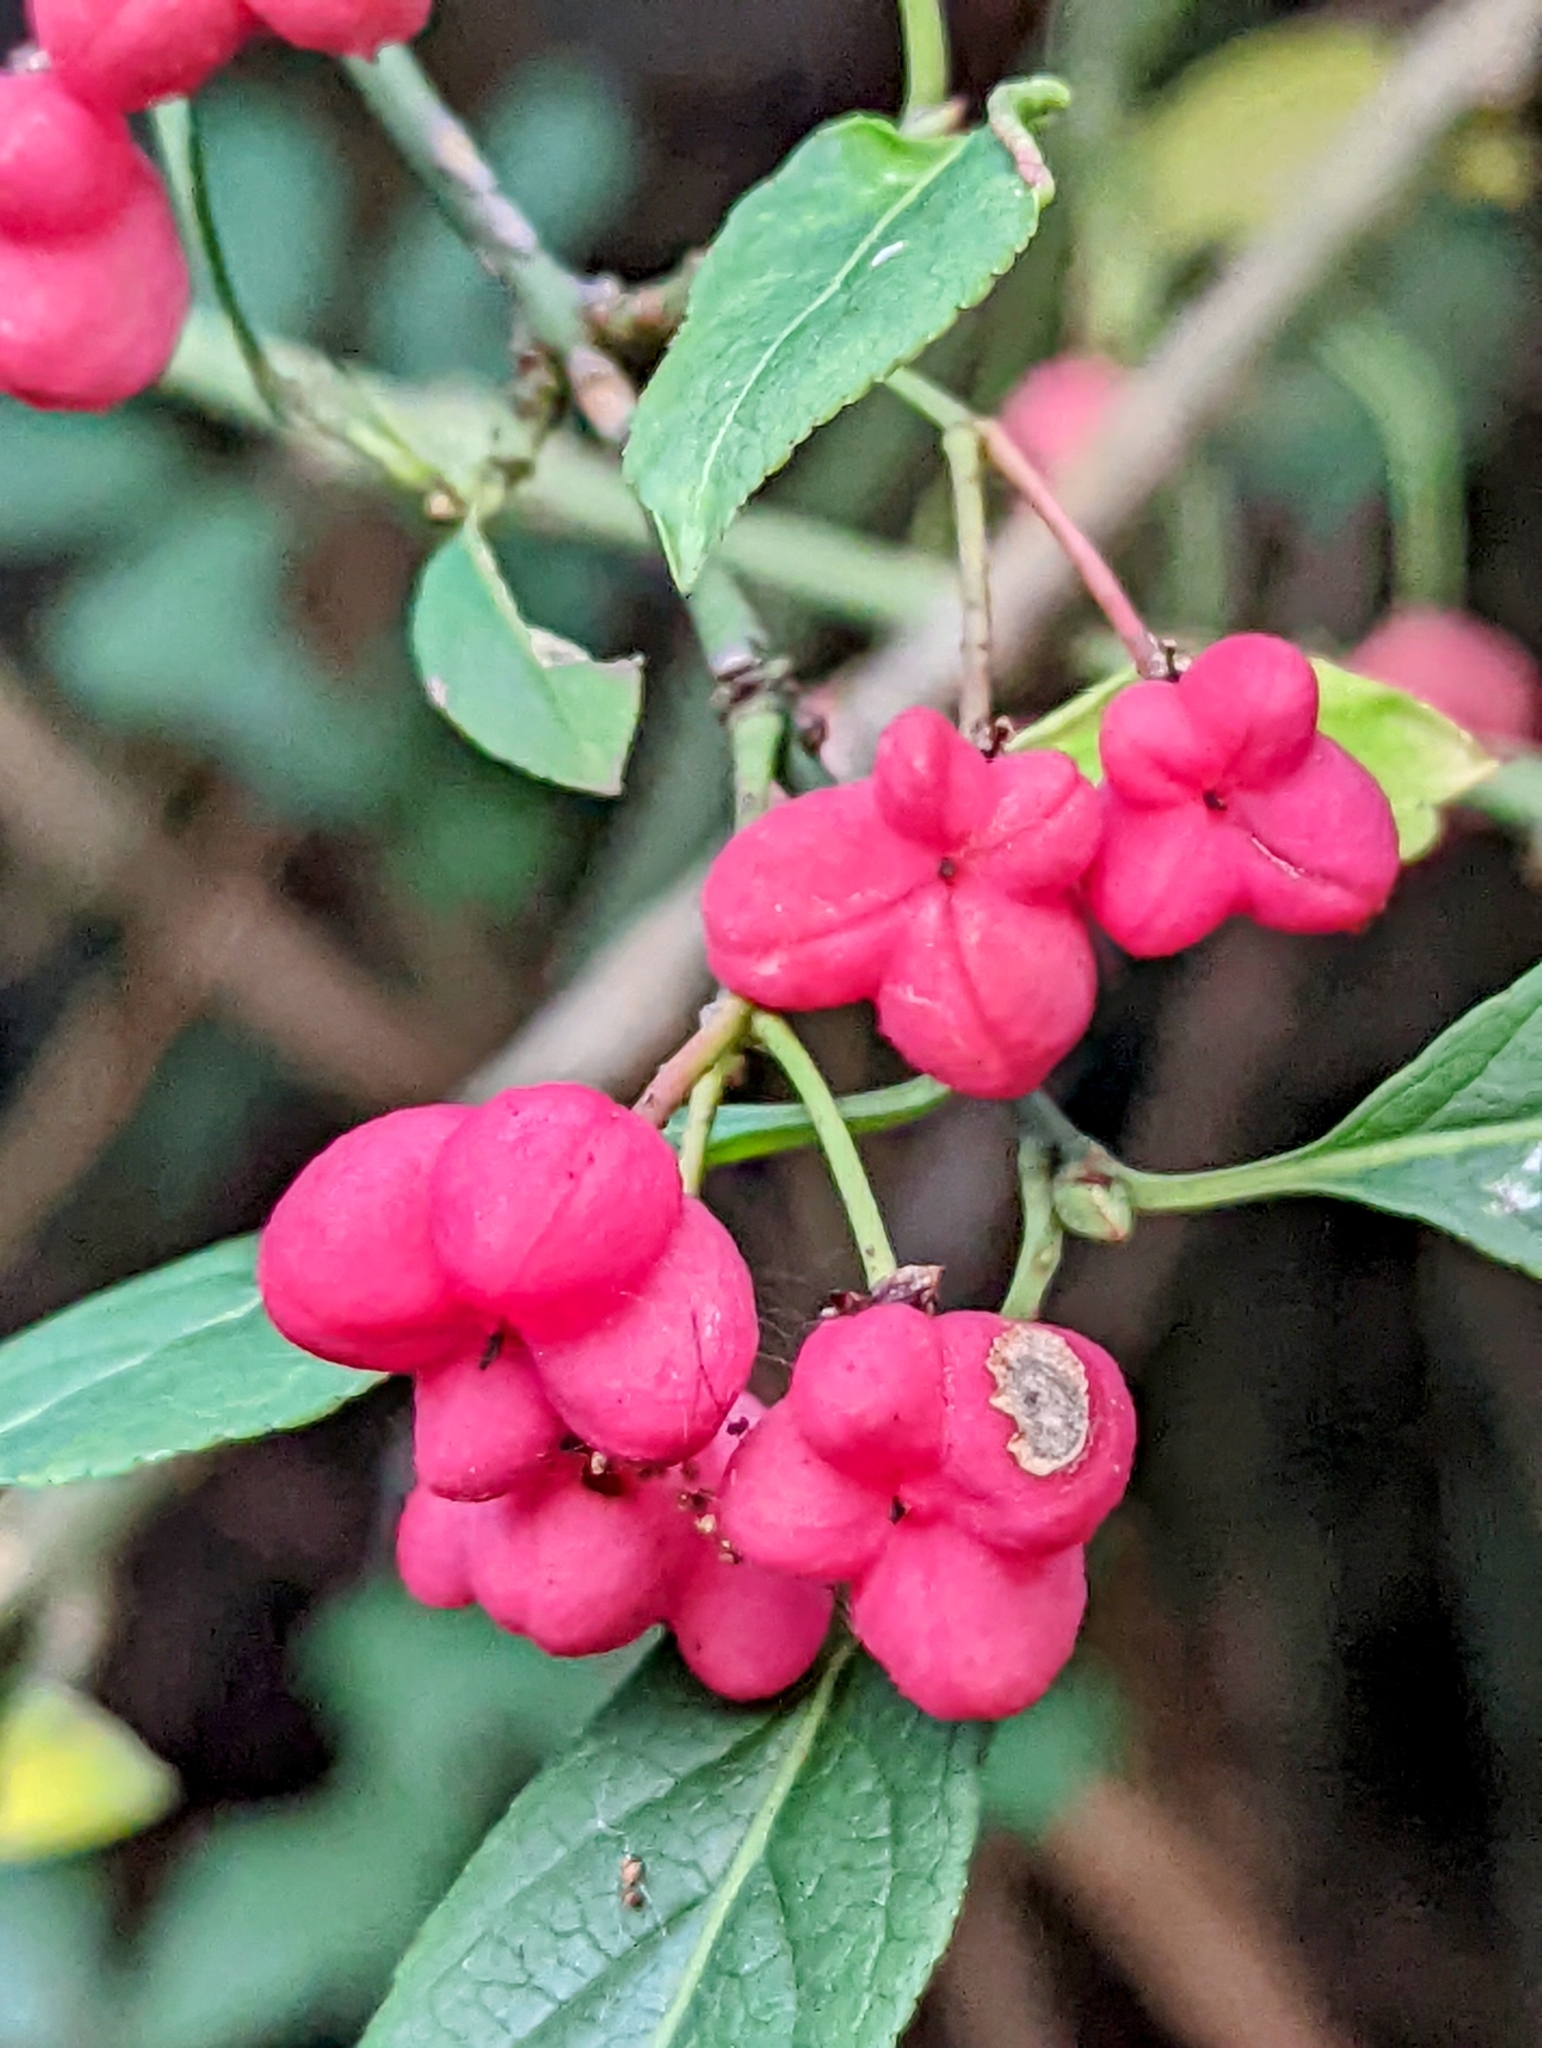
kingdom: Plantae
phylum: Tracheophyta
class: Magnoliopsida
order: Celastrales
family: Celastraceae
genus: Euonymus
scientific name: Euonymus europaeus
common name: Spindle
